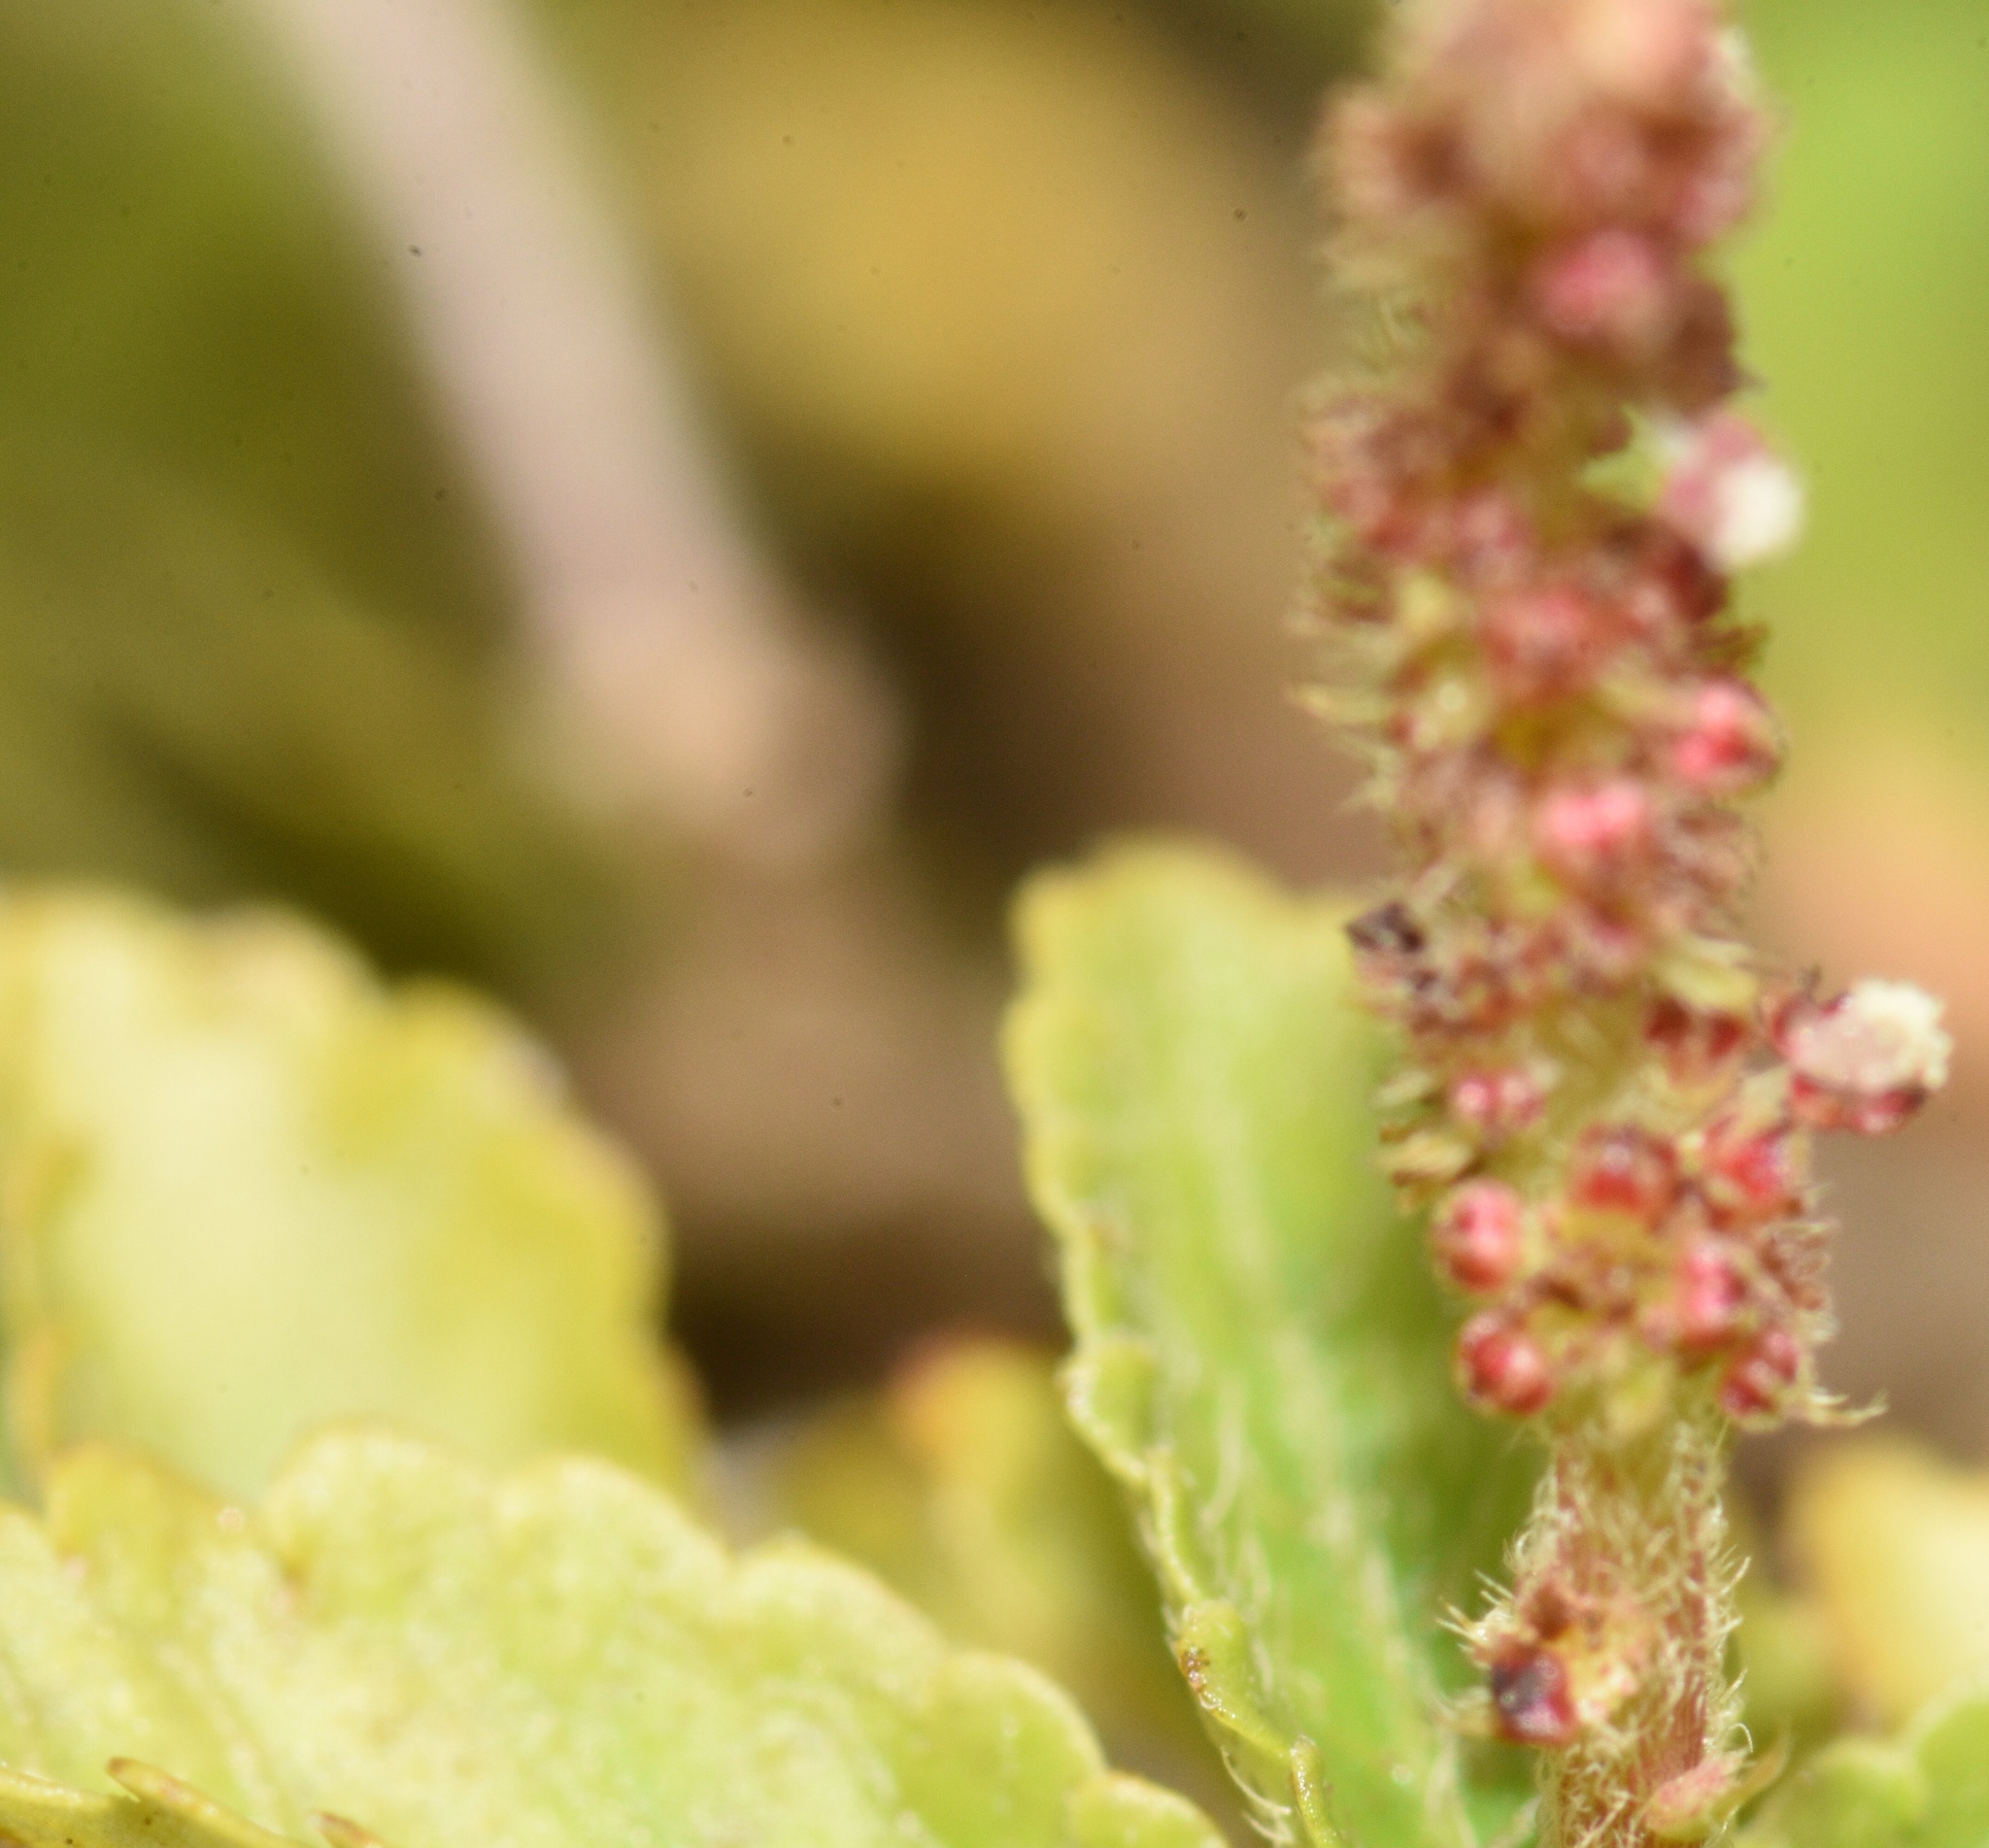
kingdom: Plantae
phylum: Tracheophyta
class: Magnoliopsida
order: Malpighiales
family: Euphorbiaceae
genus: Acalypha
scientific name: Acalypha chamaedrifolia
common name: Bastard copperleaf
